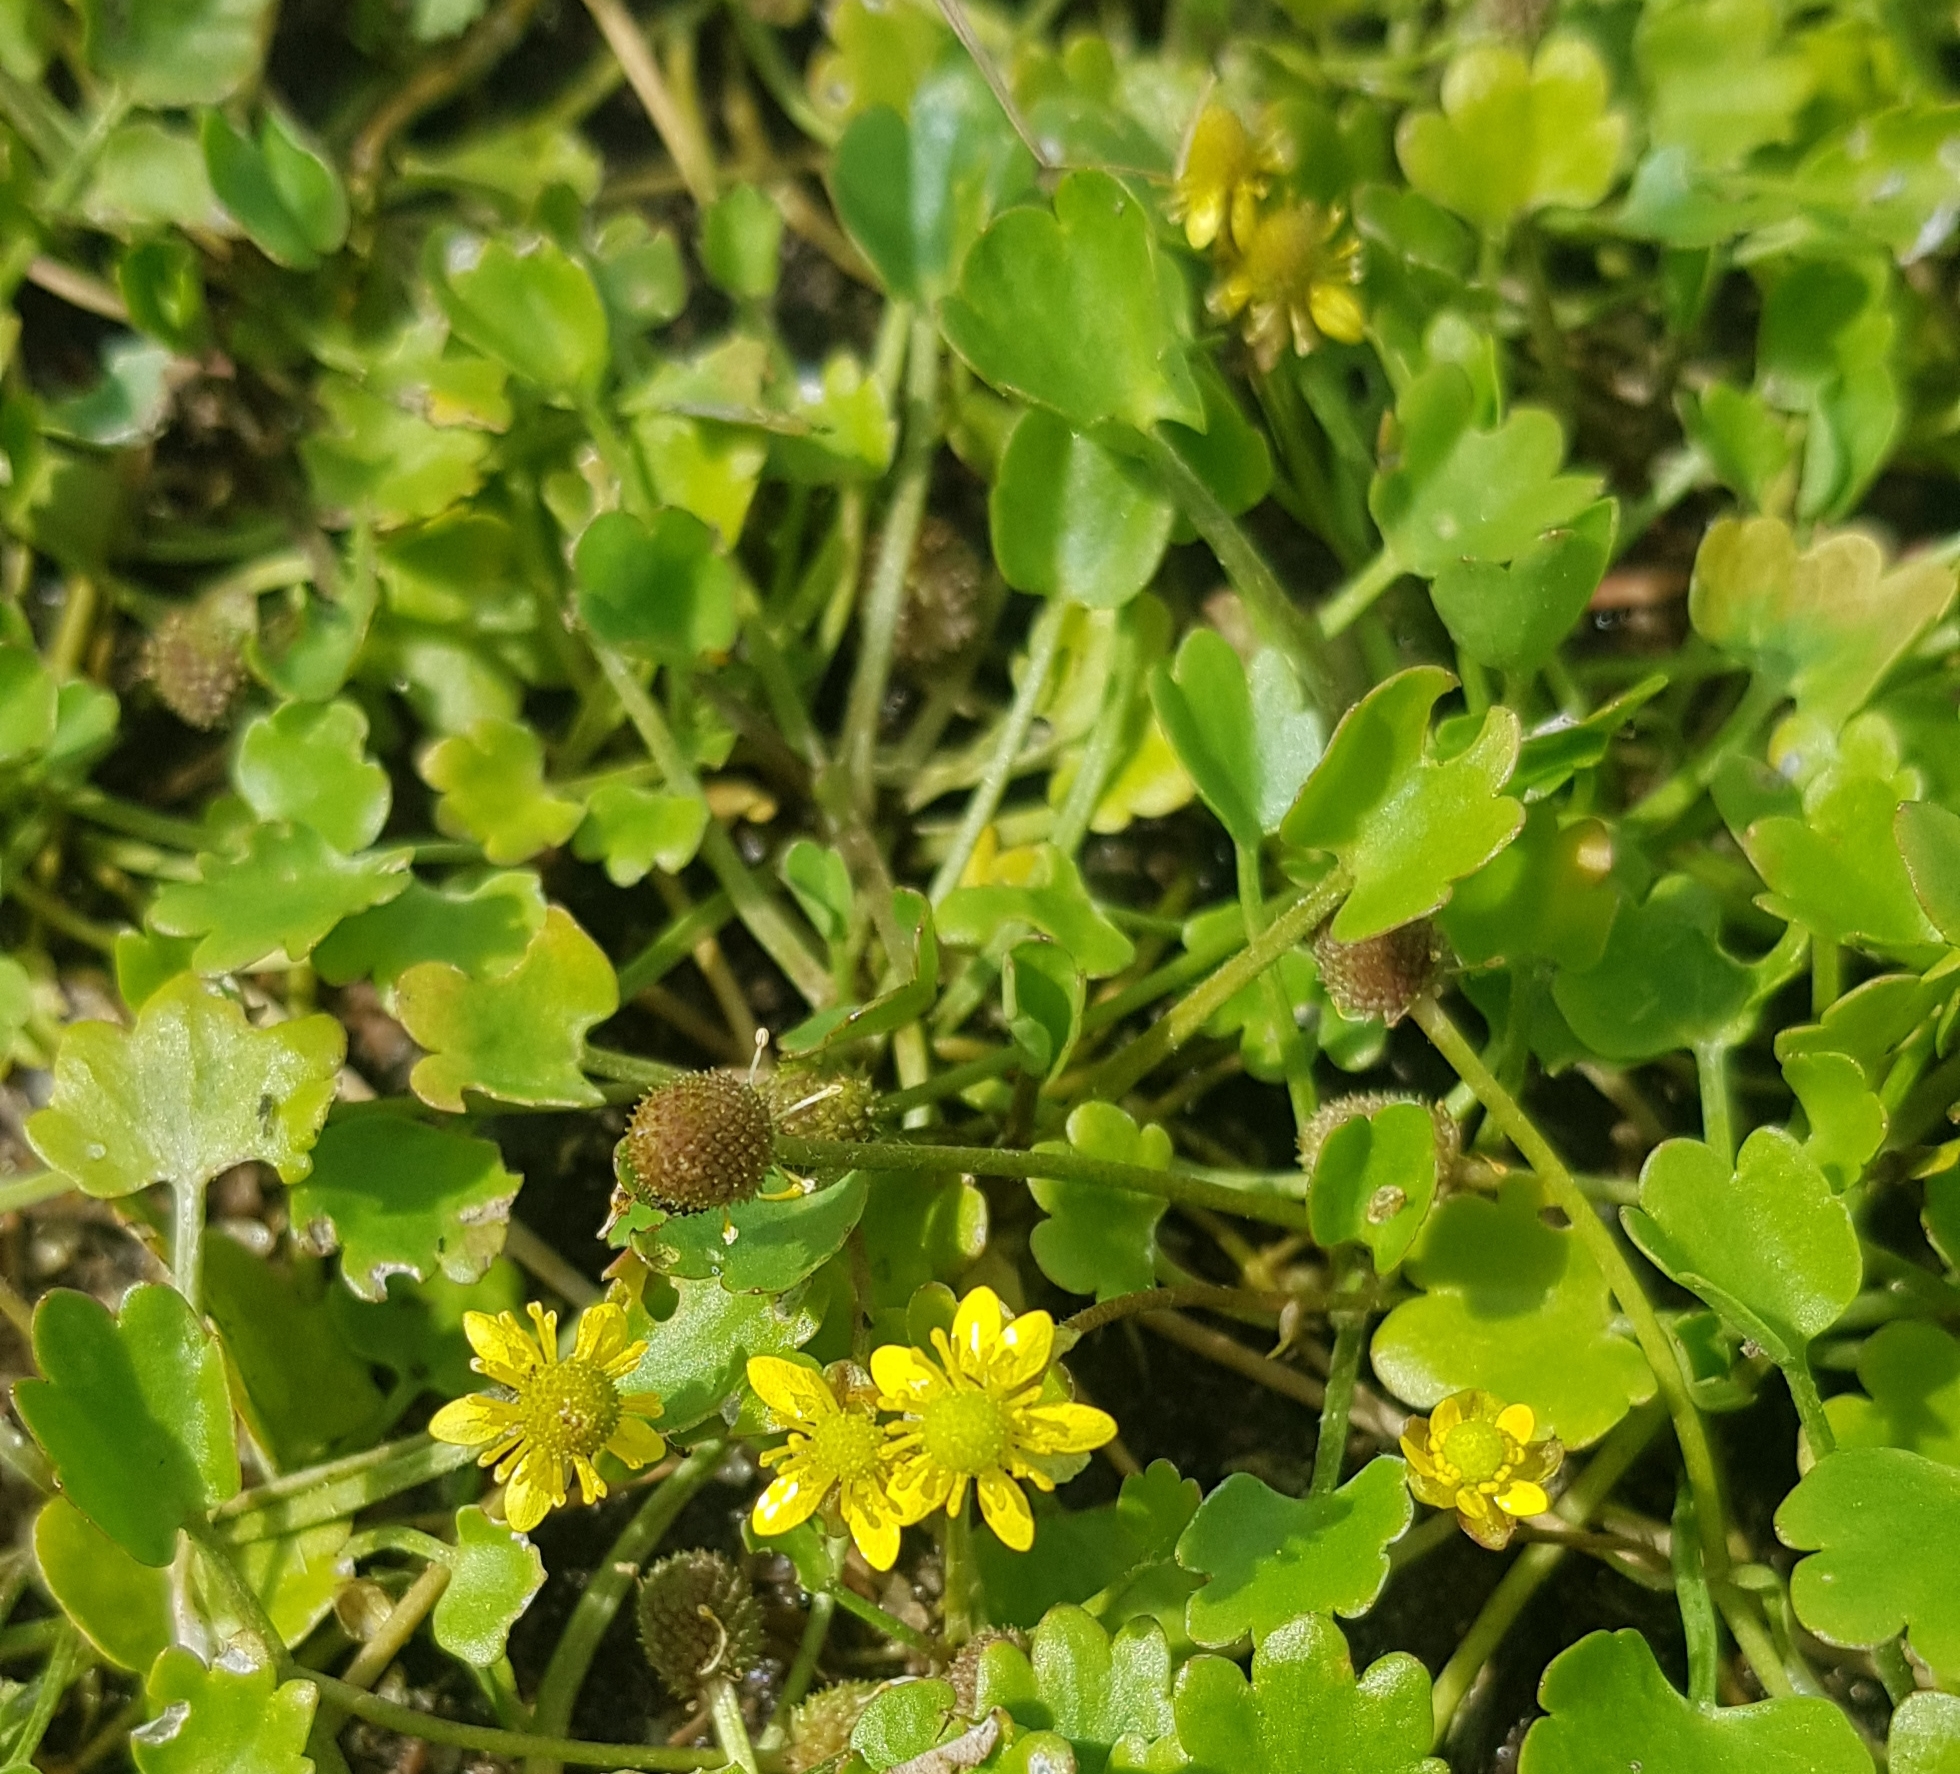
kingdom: Plantae
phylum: Tracheophyta
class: Magnoliopsida
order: Ranunculales
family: Ranunculaceae
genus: Halerpestes
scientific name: Halerpestes sarmentosus
